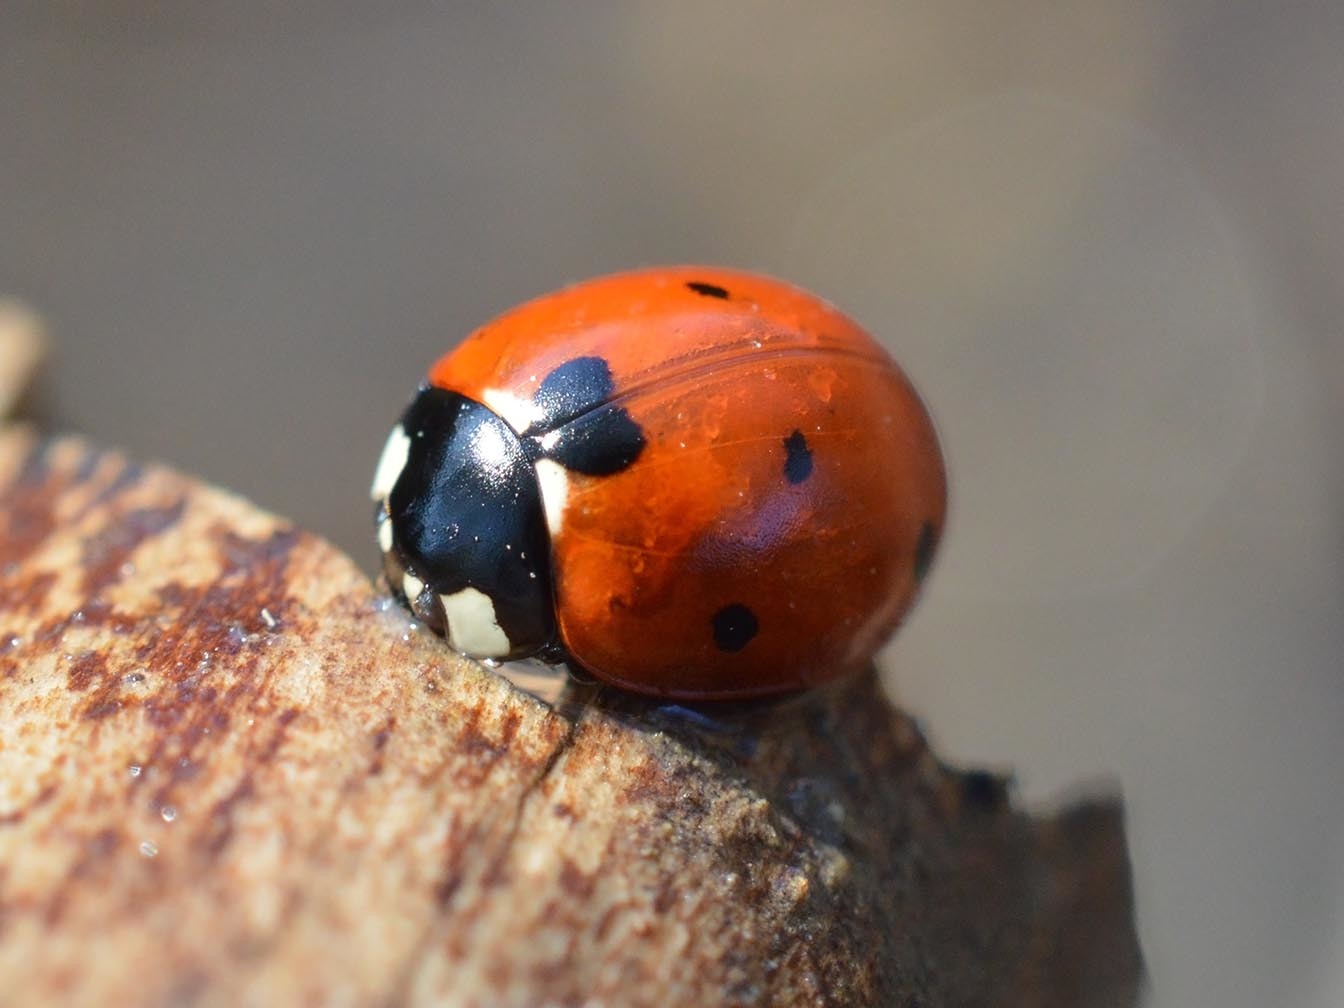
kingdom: Animalia
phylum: Arthropoda
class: Insecta
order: Coleoptera
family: Coccinellidae
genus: Coccinella
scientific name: Coccinella septempunctata
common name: Sevenspotted lady beetle
